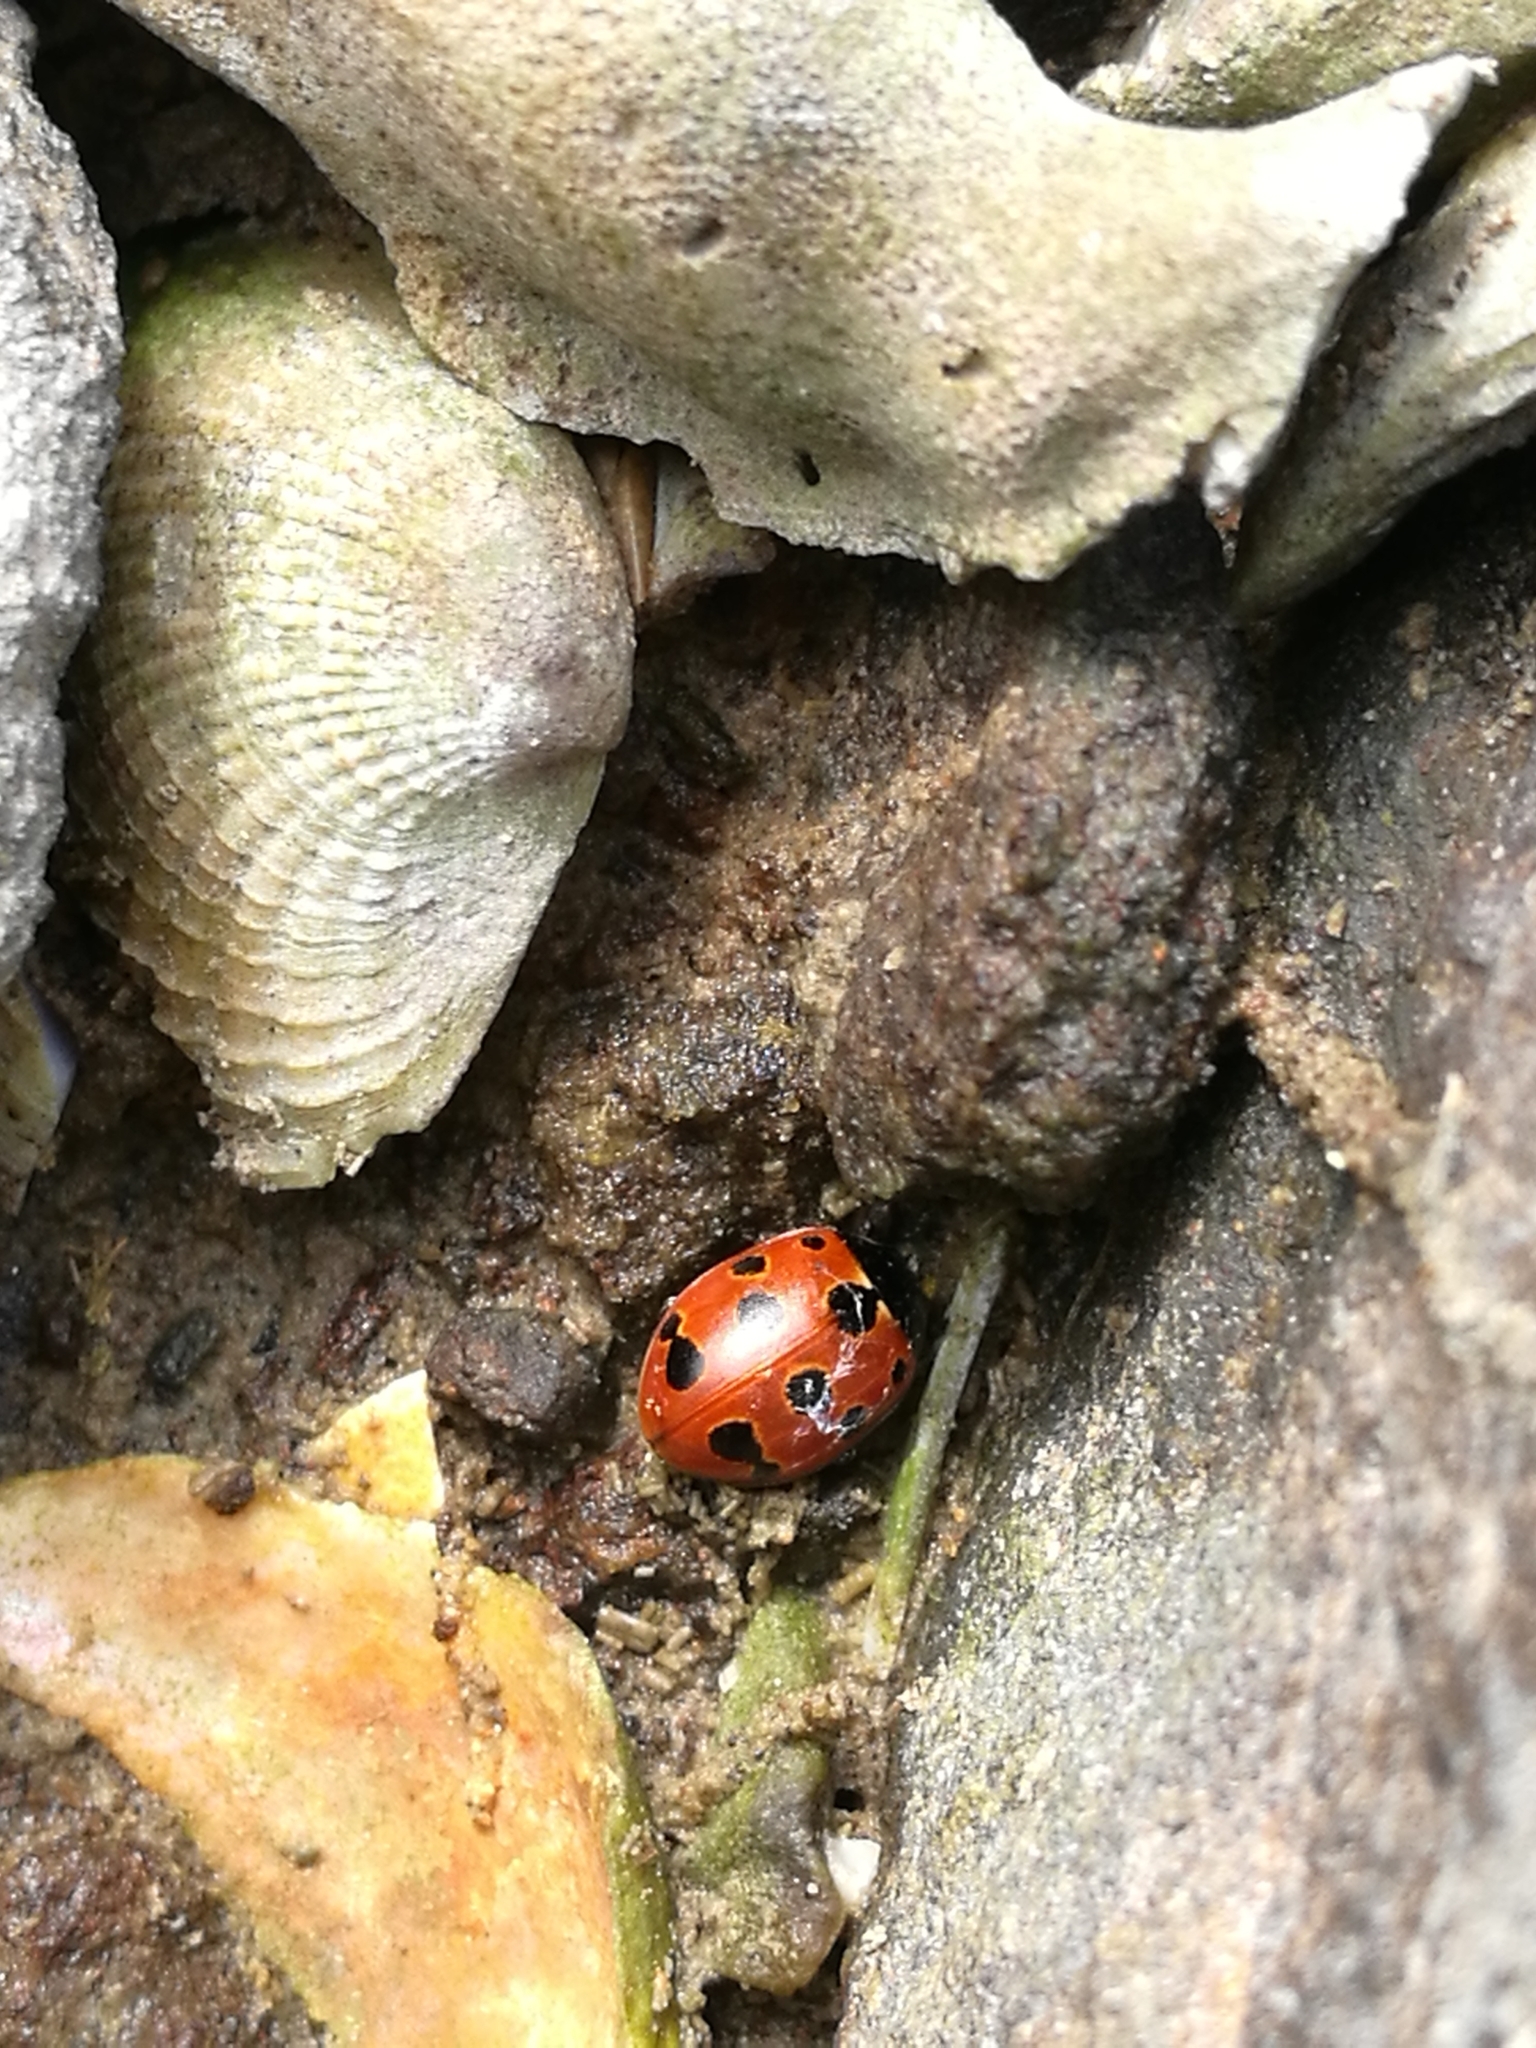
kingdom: Animalia
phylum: Arthropoda
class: Insecta
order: Coleoptera
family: Coccinellidae
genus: Coccinella
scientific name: Coccinella undecimpunctata
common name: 11-spot ladybird
